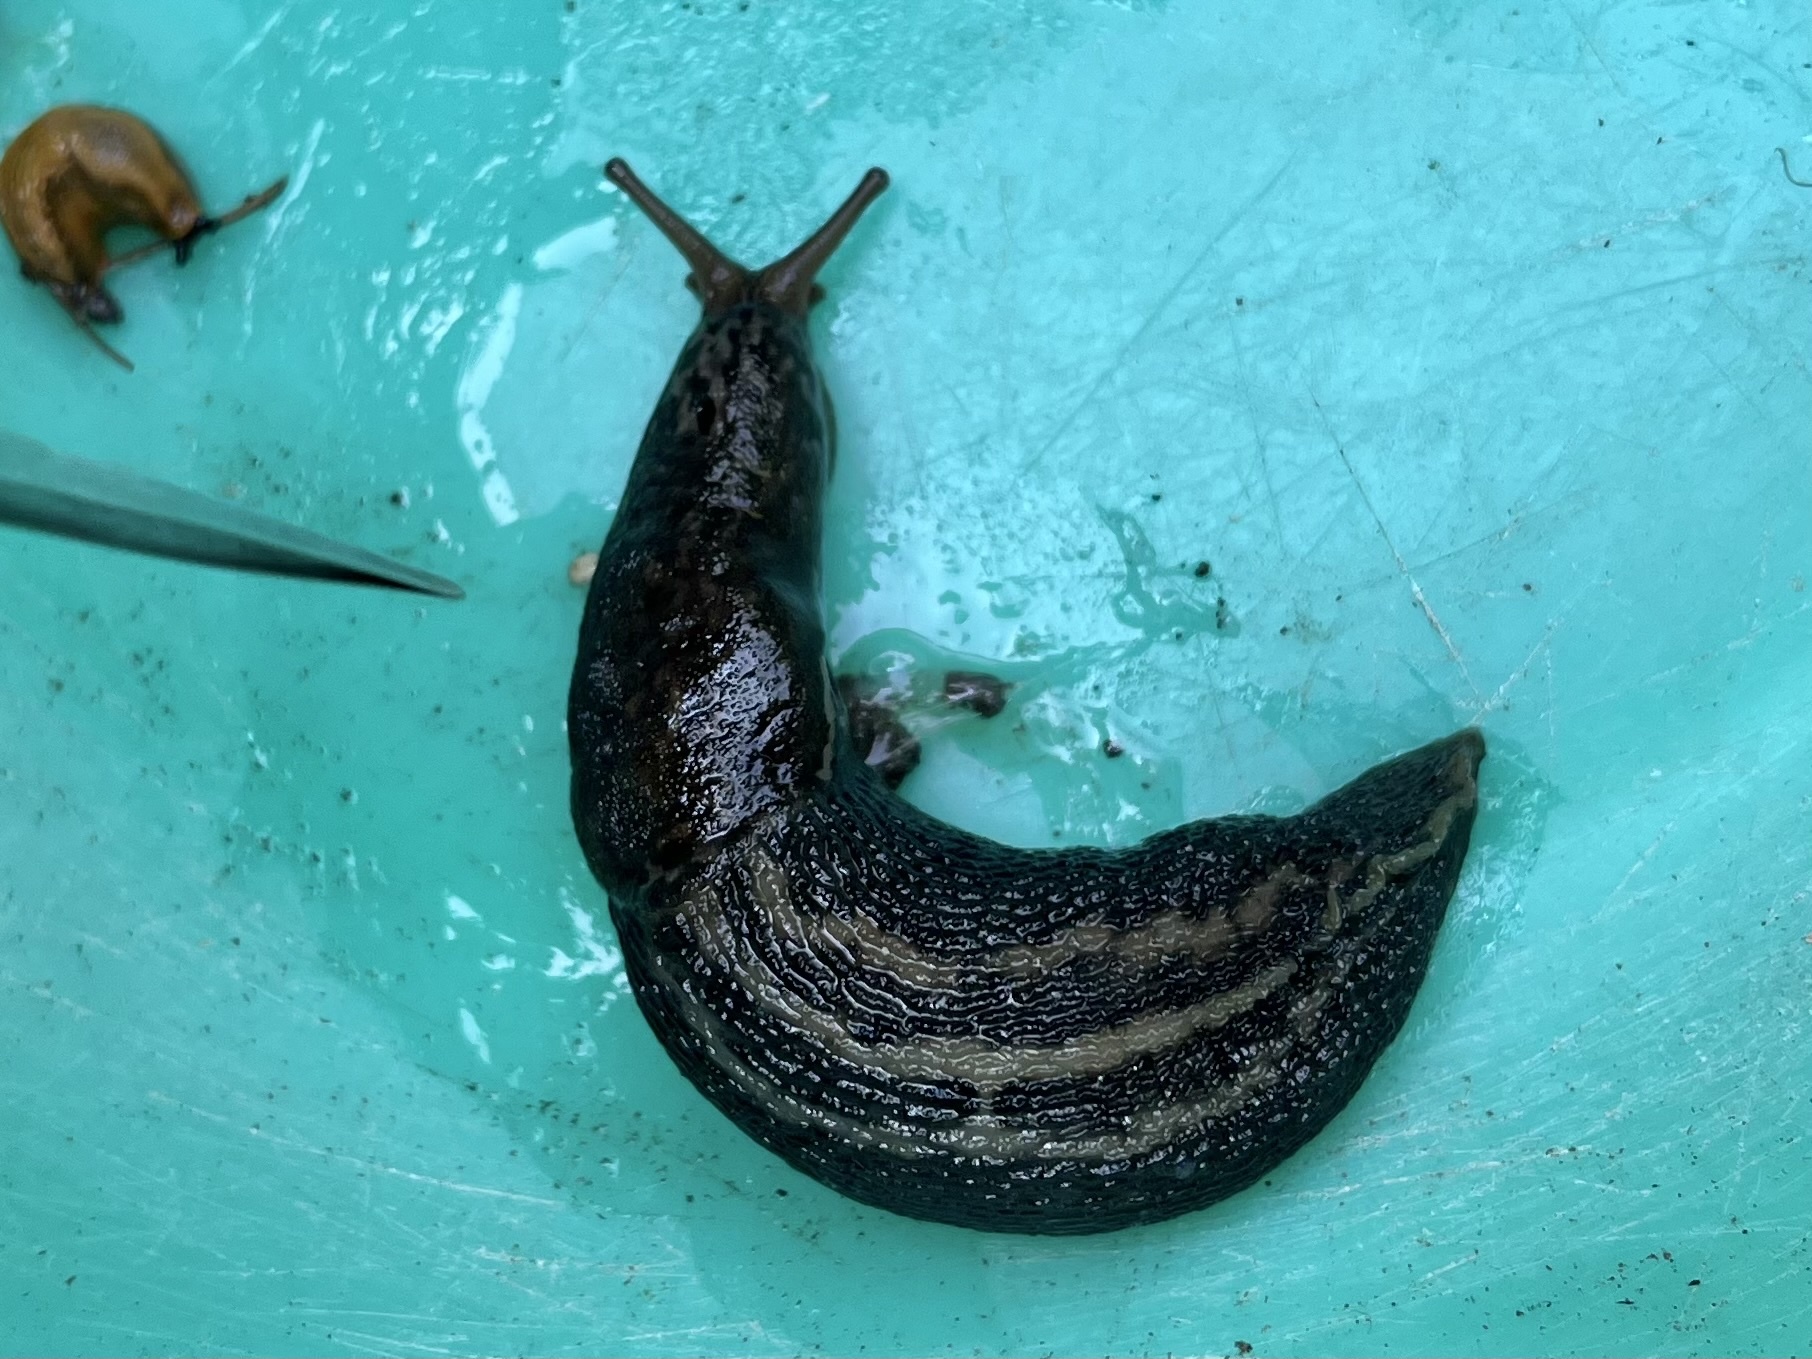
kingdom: Animalia
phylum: Mollusca
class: Gastropoda
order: Stylommatophora
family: Limacidae
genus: Limax
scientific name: Limax maximus
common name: Great grey slug
